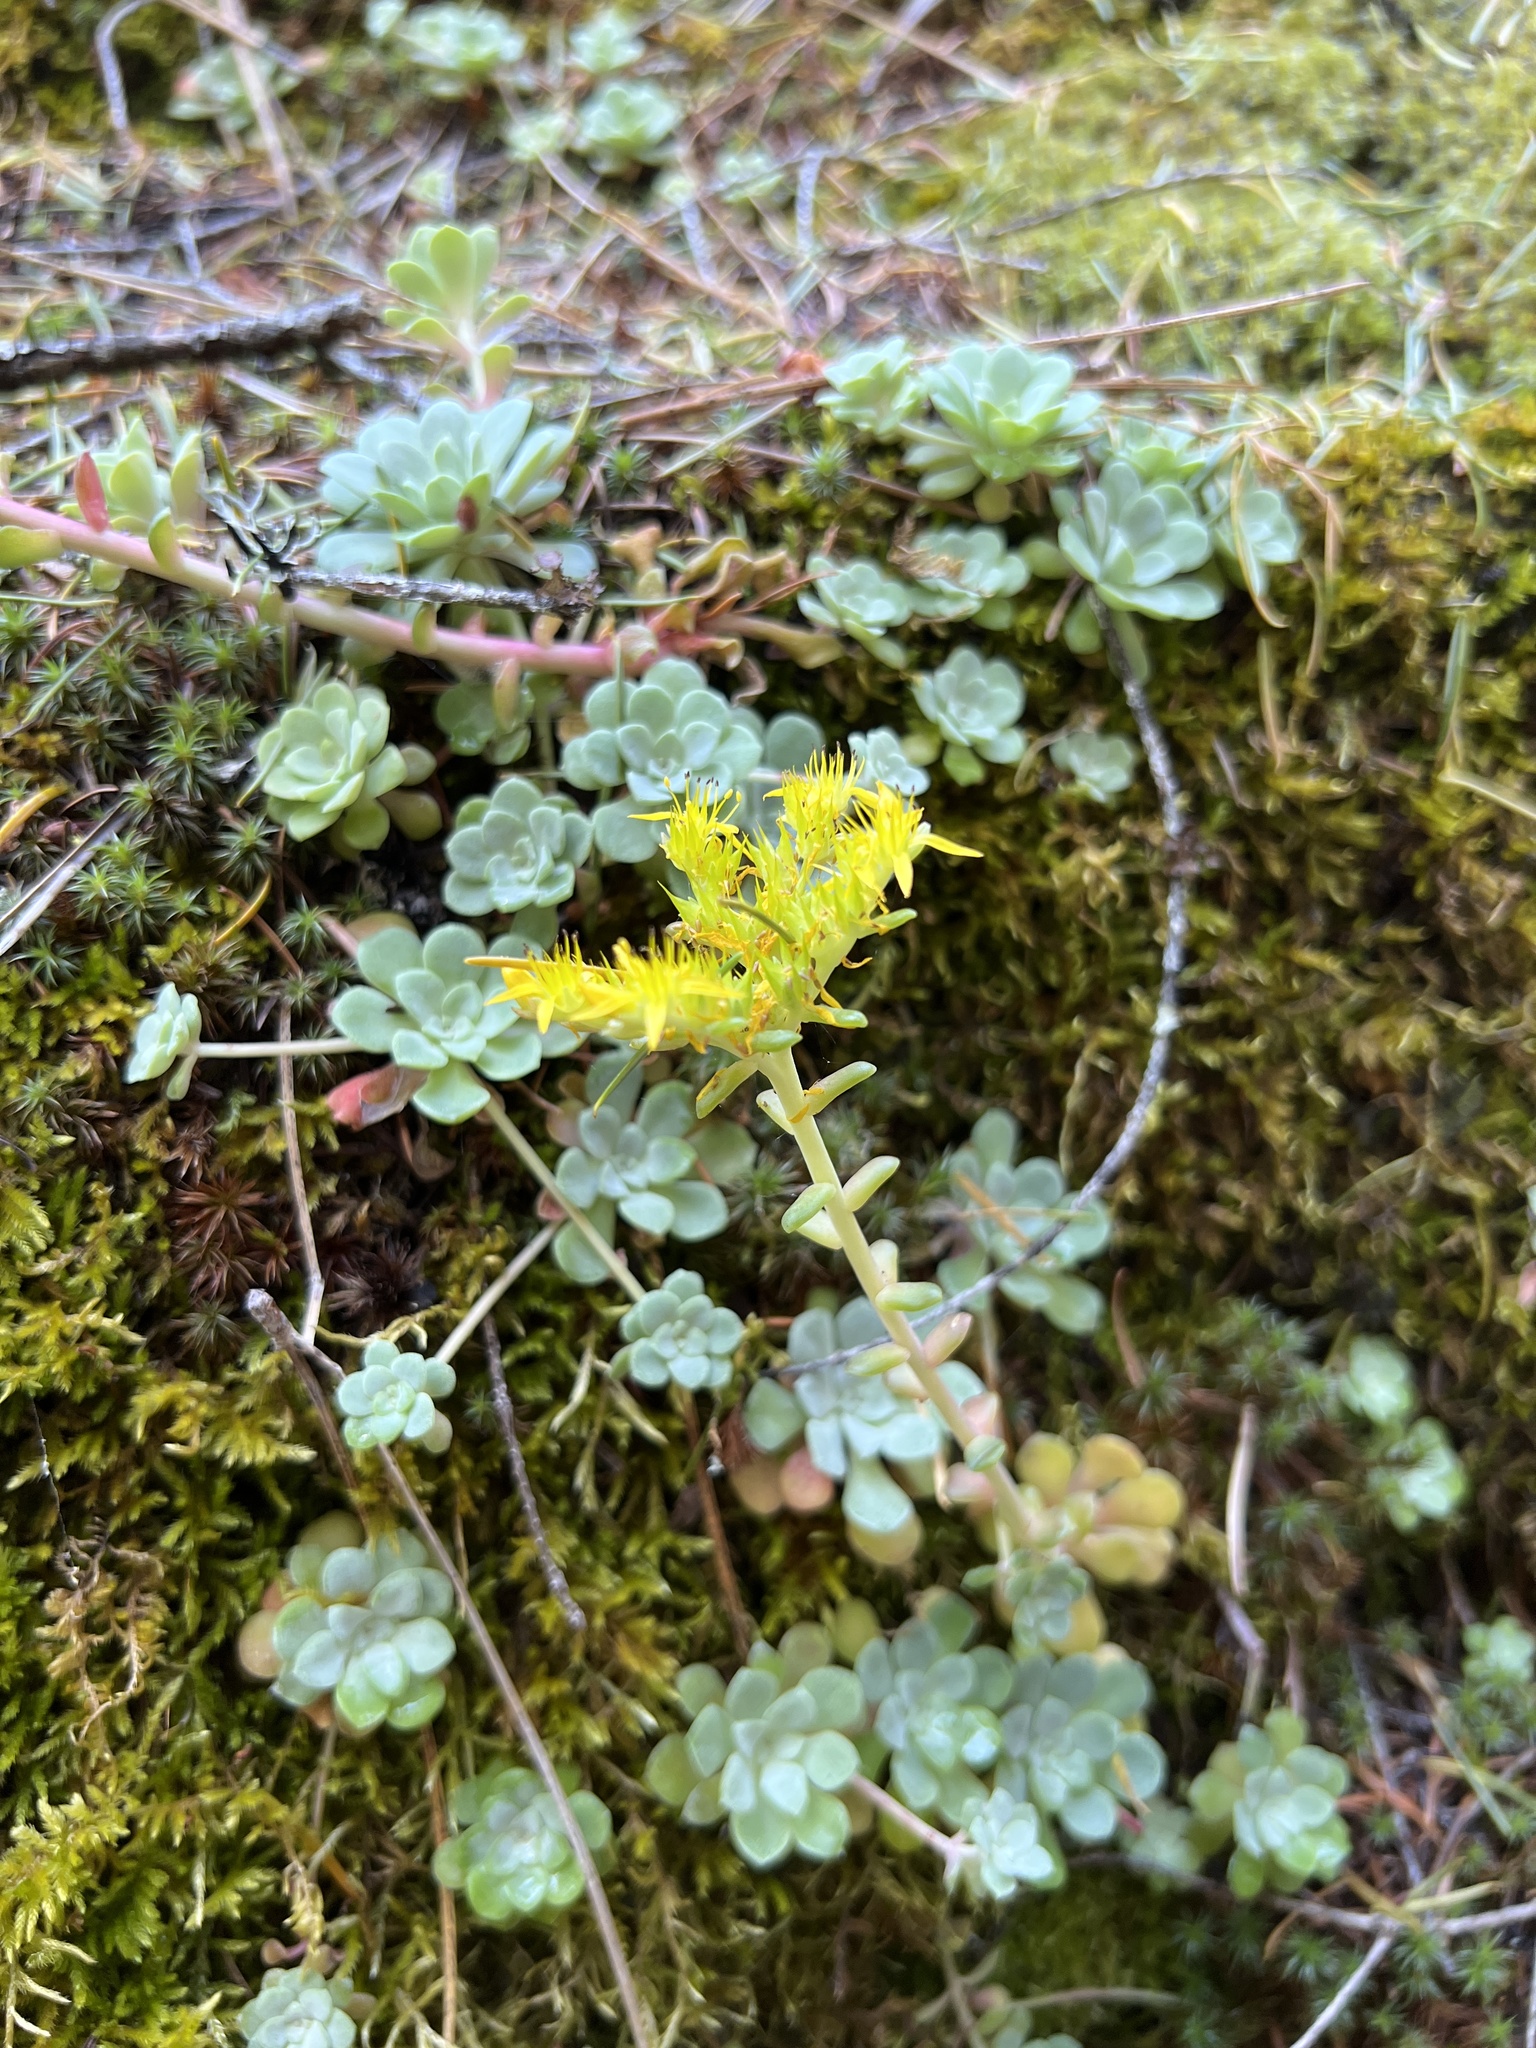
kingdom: Plantae
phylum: Tracheophyta
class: Magnoliopsida
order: Saxifragales
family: Crassulaceae
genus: Sedum
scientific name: Sedum spathulifolium
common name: Colorado stonecrop
